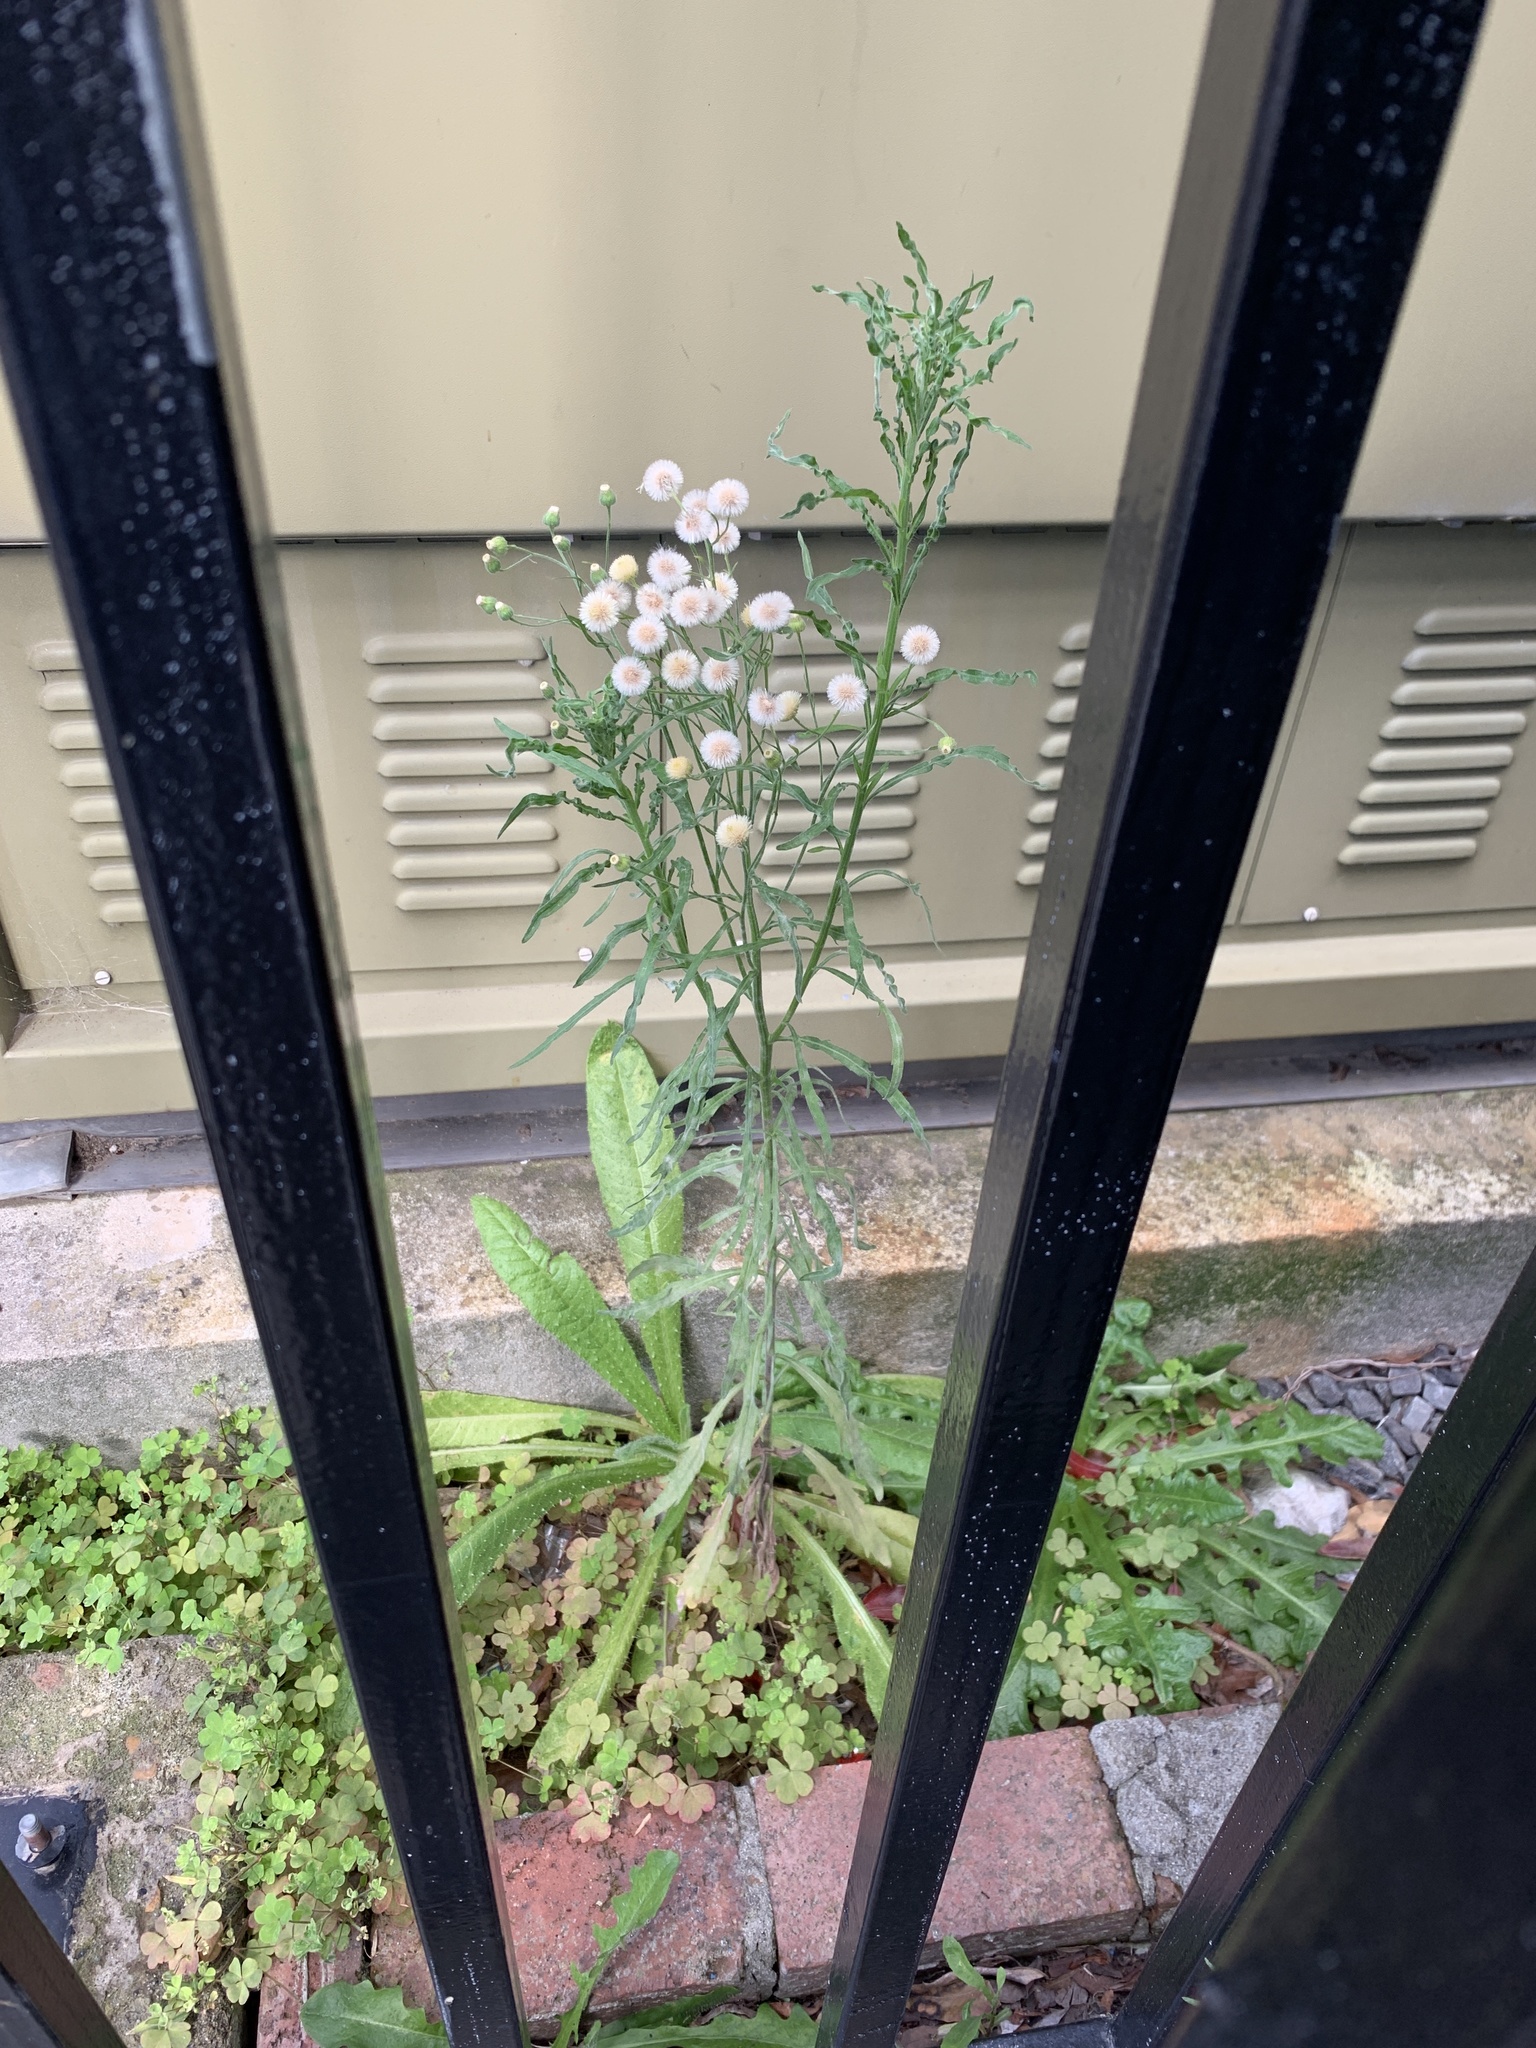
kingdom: Plantae
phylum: Tracheophyta
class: Magnoliopsida
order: Asterales
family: Asteraceae
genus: Erigeron
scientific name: Erigeron bonariensis
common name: Argentine fleabane
